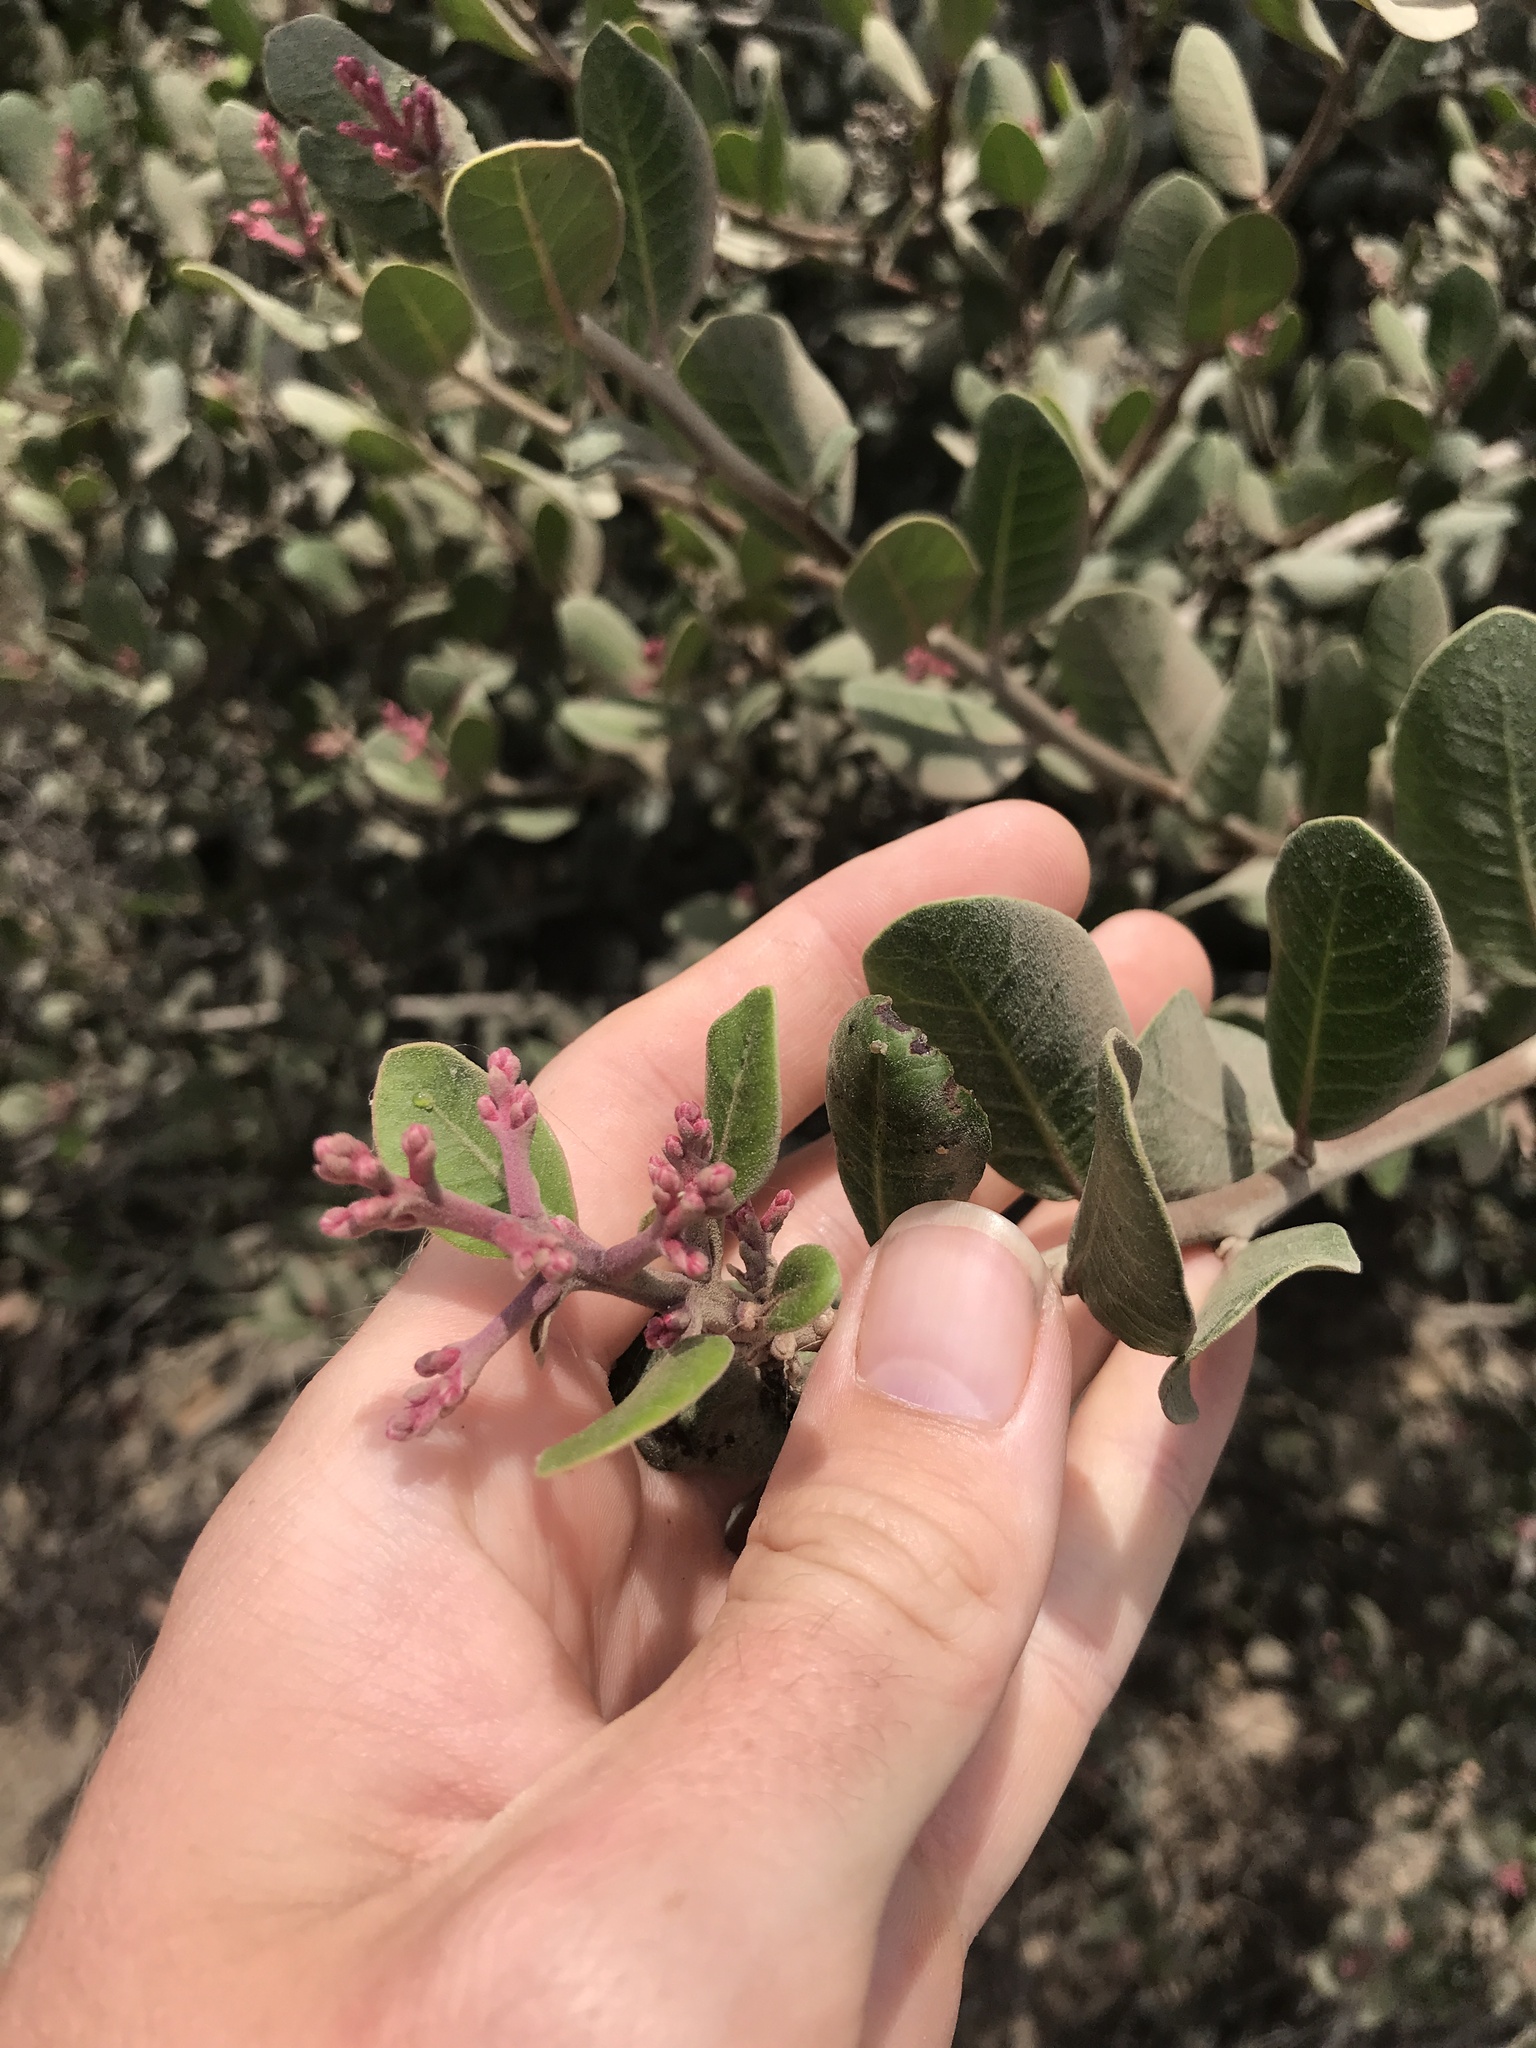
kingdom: Plantae
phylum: Tracheophyta
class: Magnoliopsida
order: Sapindales
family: Anacardiaceae
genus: Rhus
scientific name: Rhus integrifolia
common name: Lemonade sumac
